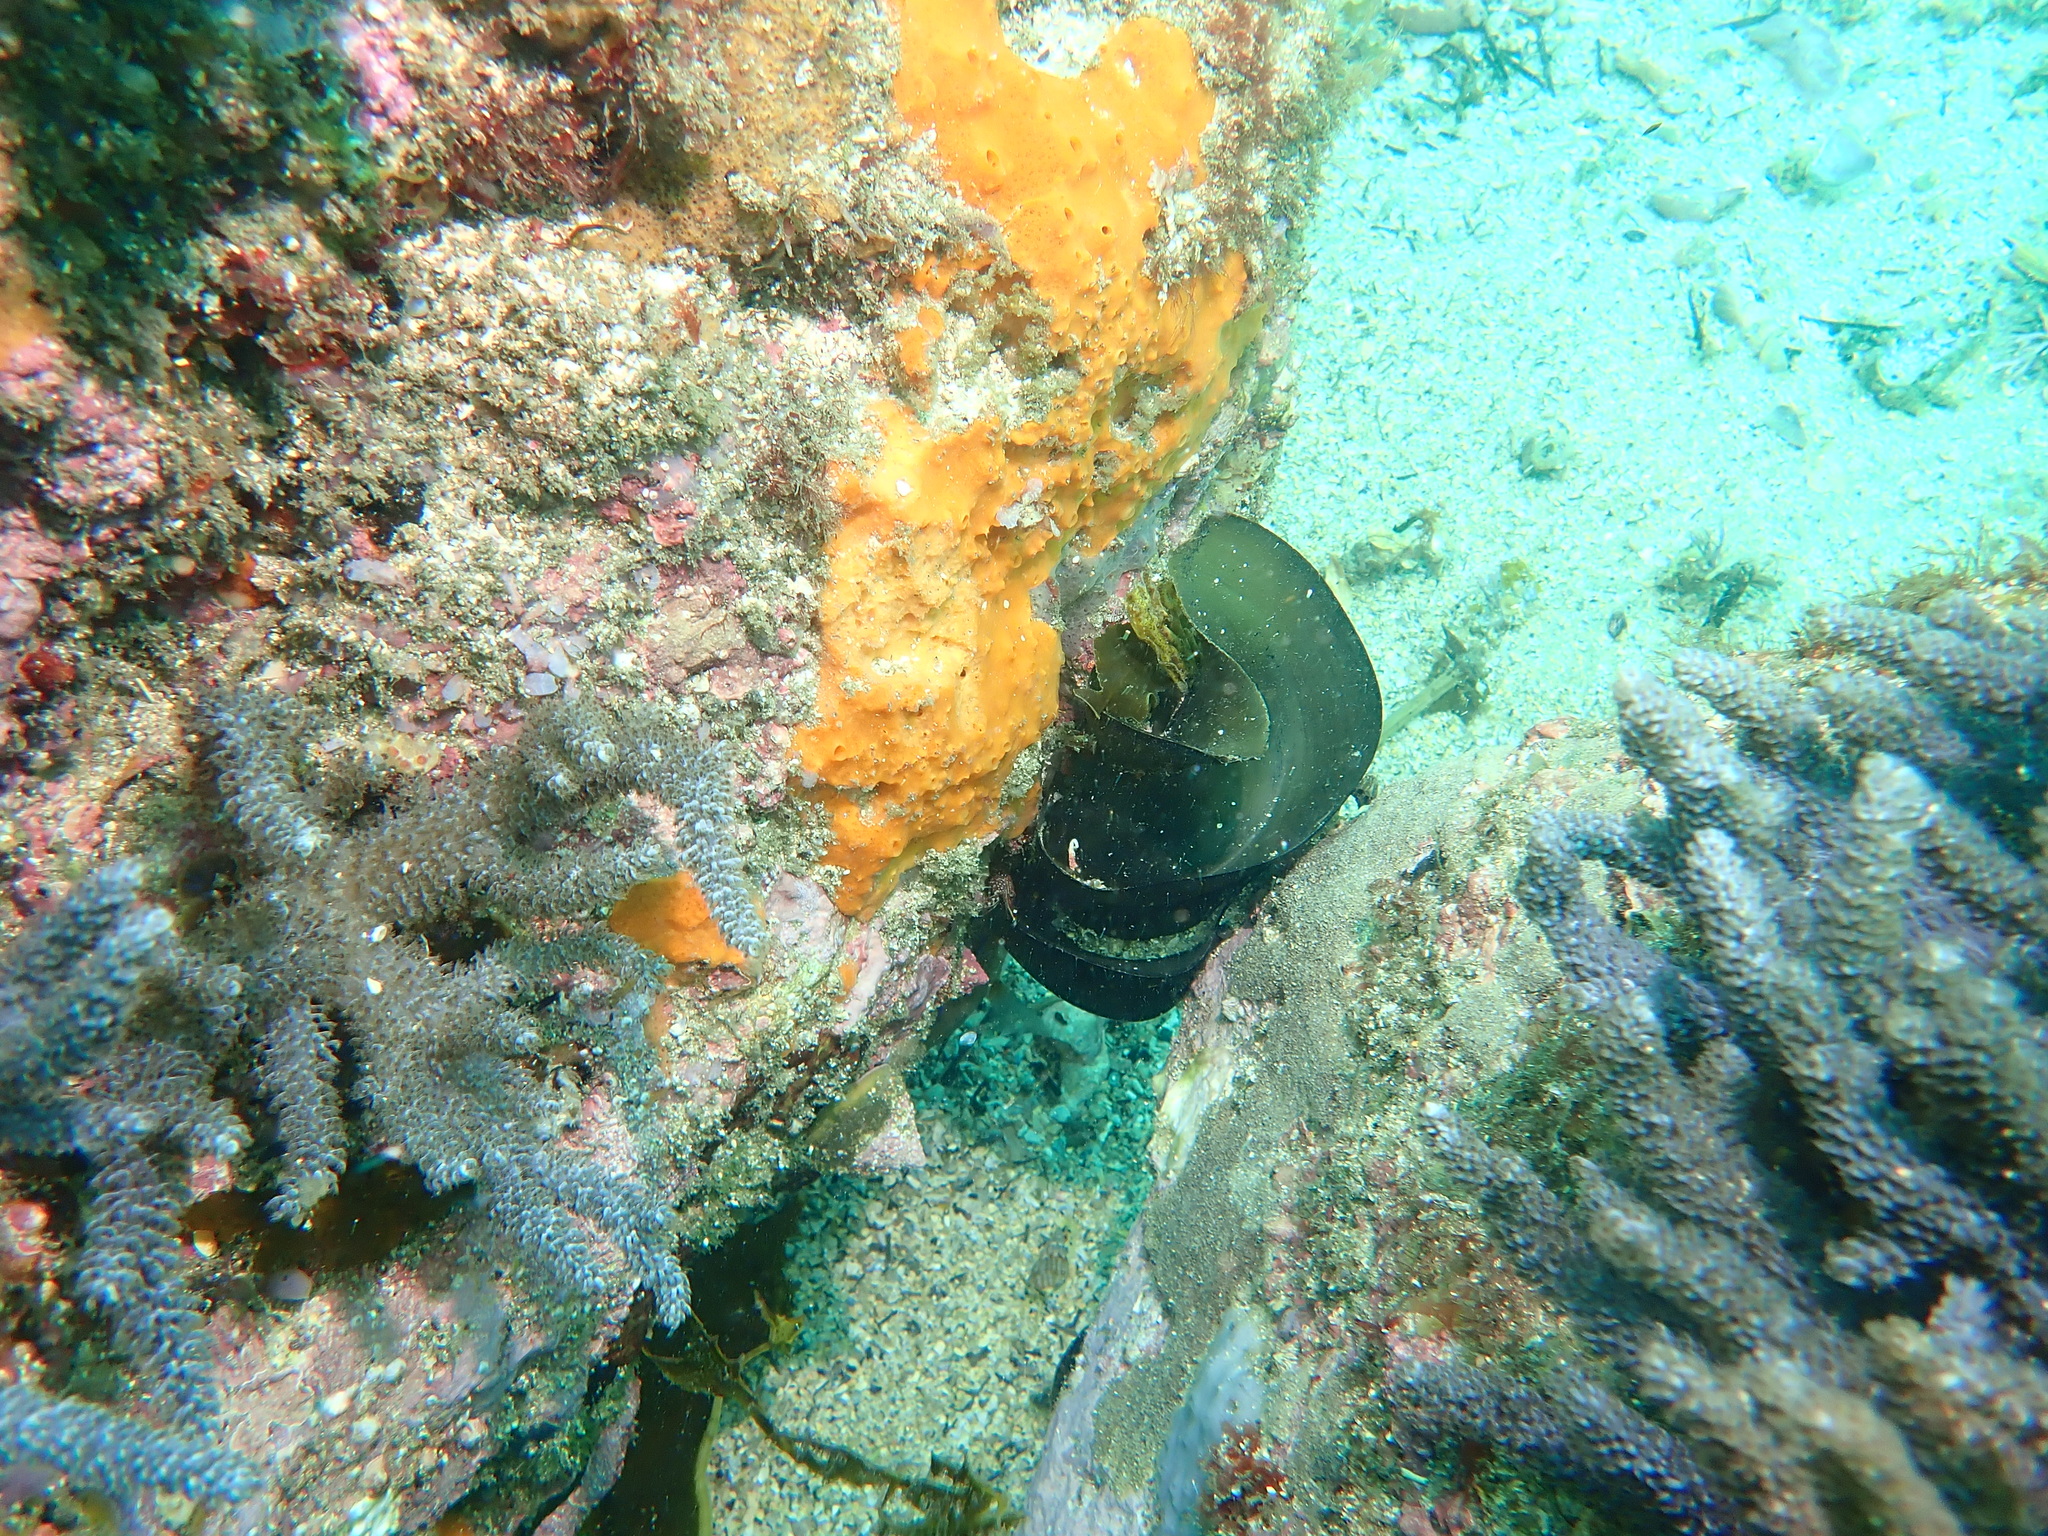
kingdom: Animalia
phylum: Chordata
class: Elasmobranchii
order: Heterodontiformes
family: Heterodontidae
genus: Heterodontus
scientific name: Heterodontus portusjacksoni
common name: Port jackson shark
